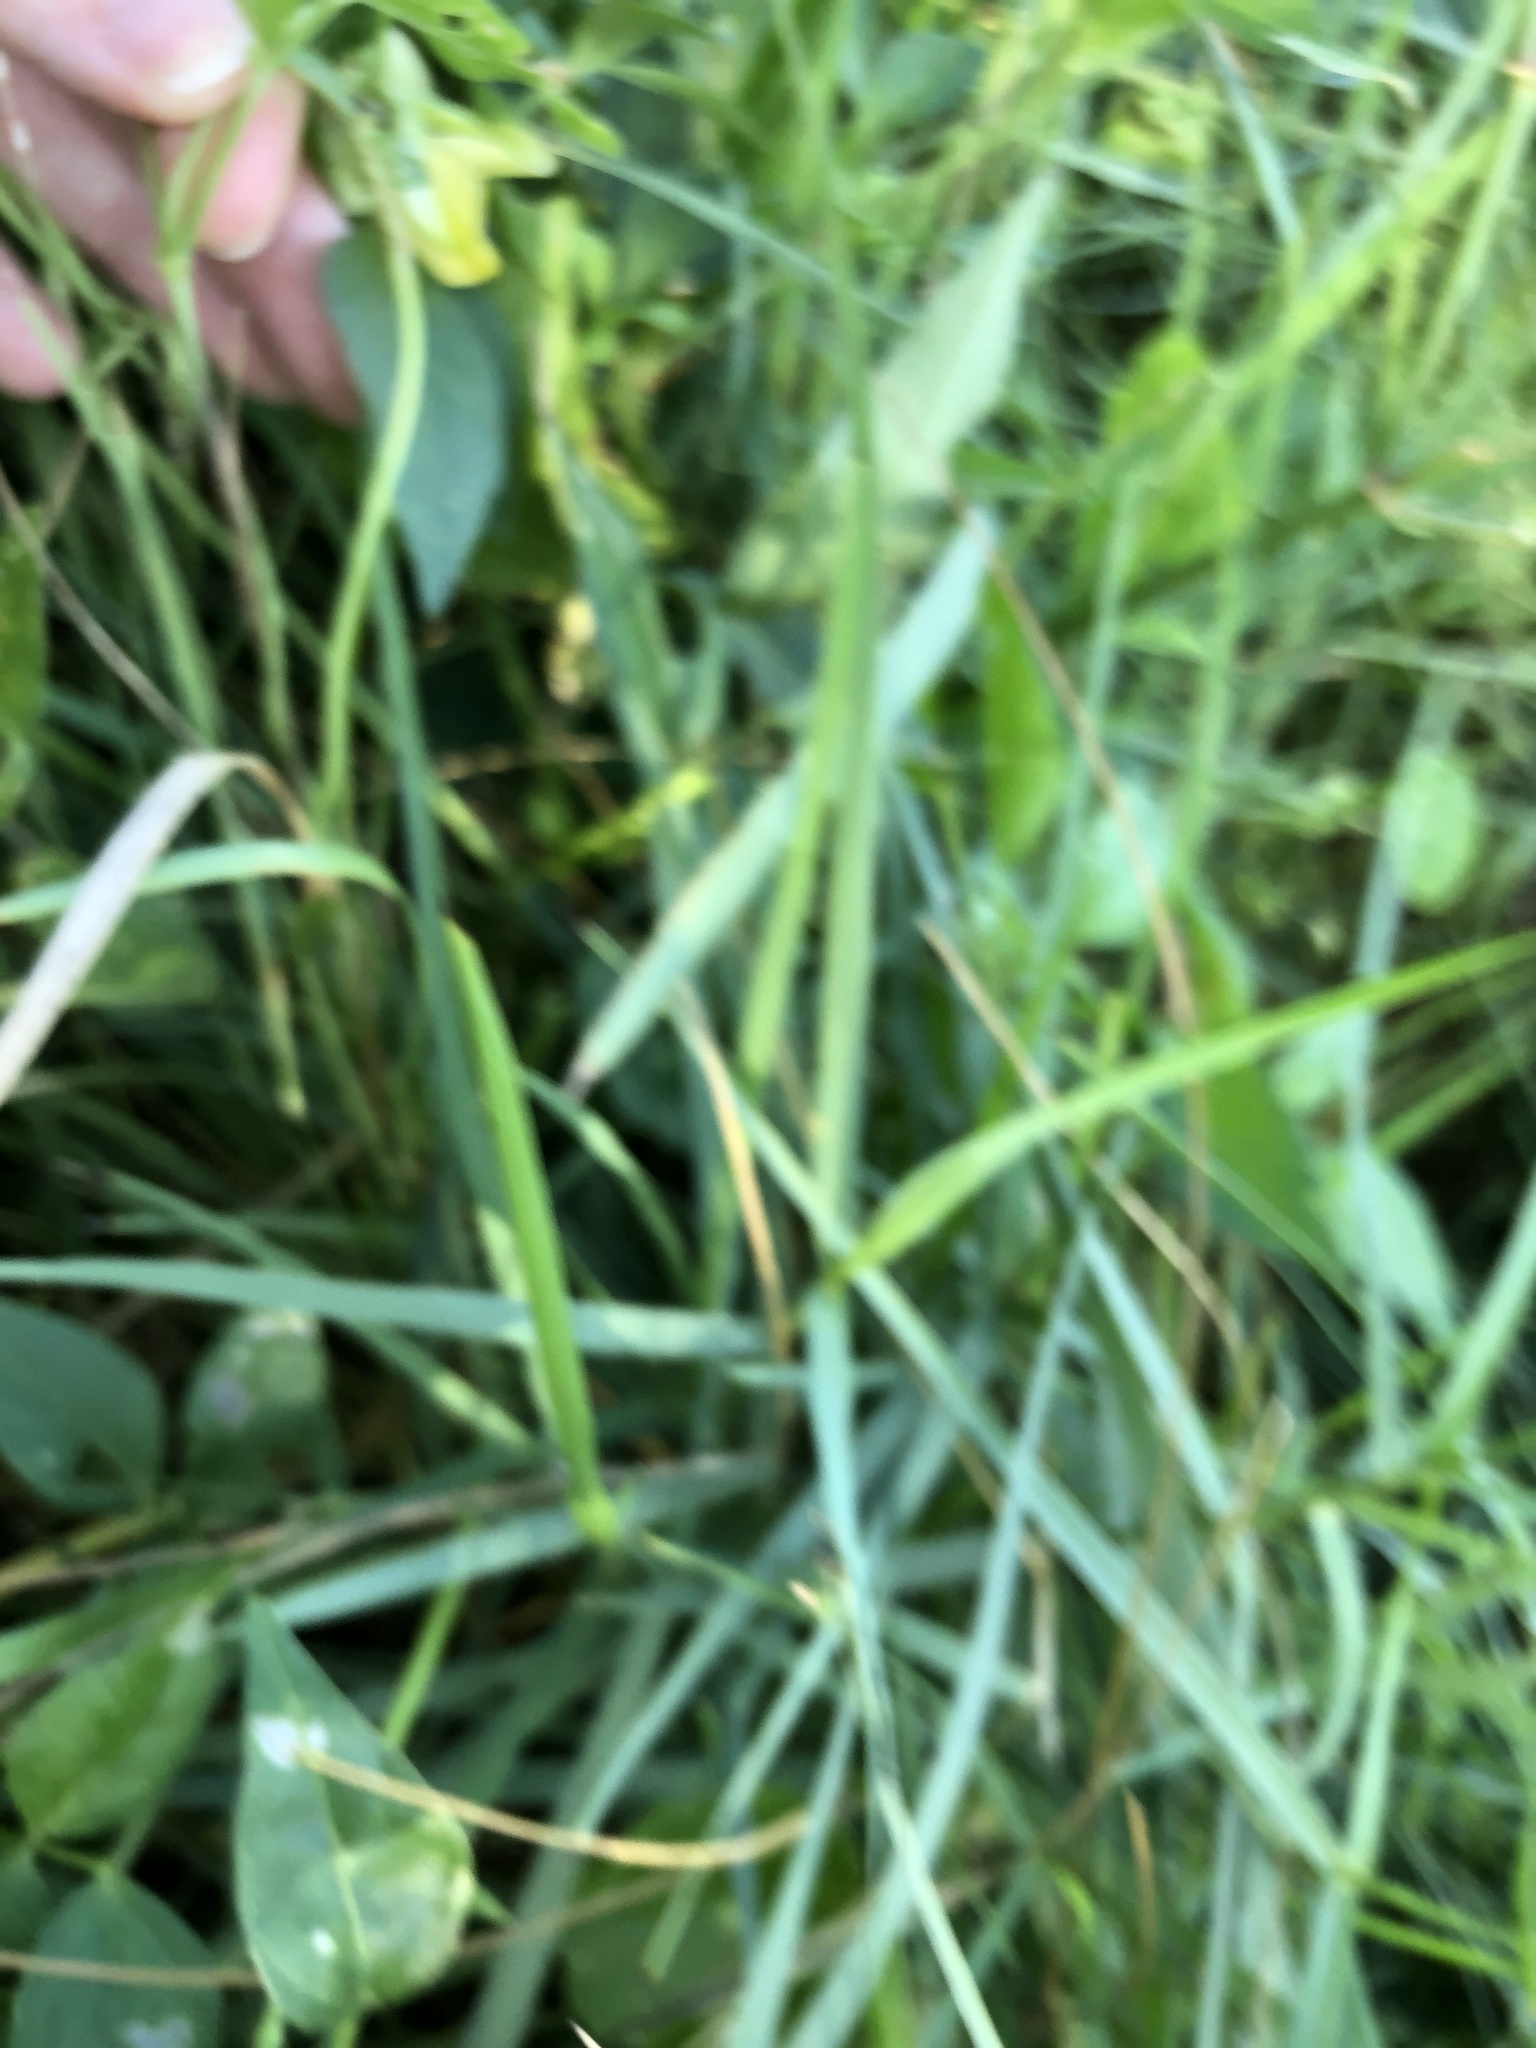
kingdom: Plantae
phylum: Tracheophyta
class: Magnoliopsida
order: Fabales
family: Fabaceae
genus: Vigna
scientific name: Vigna luteola
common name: Hairypod cowpea
